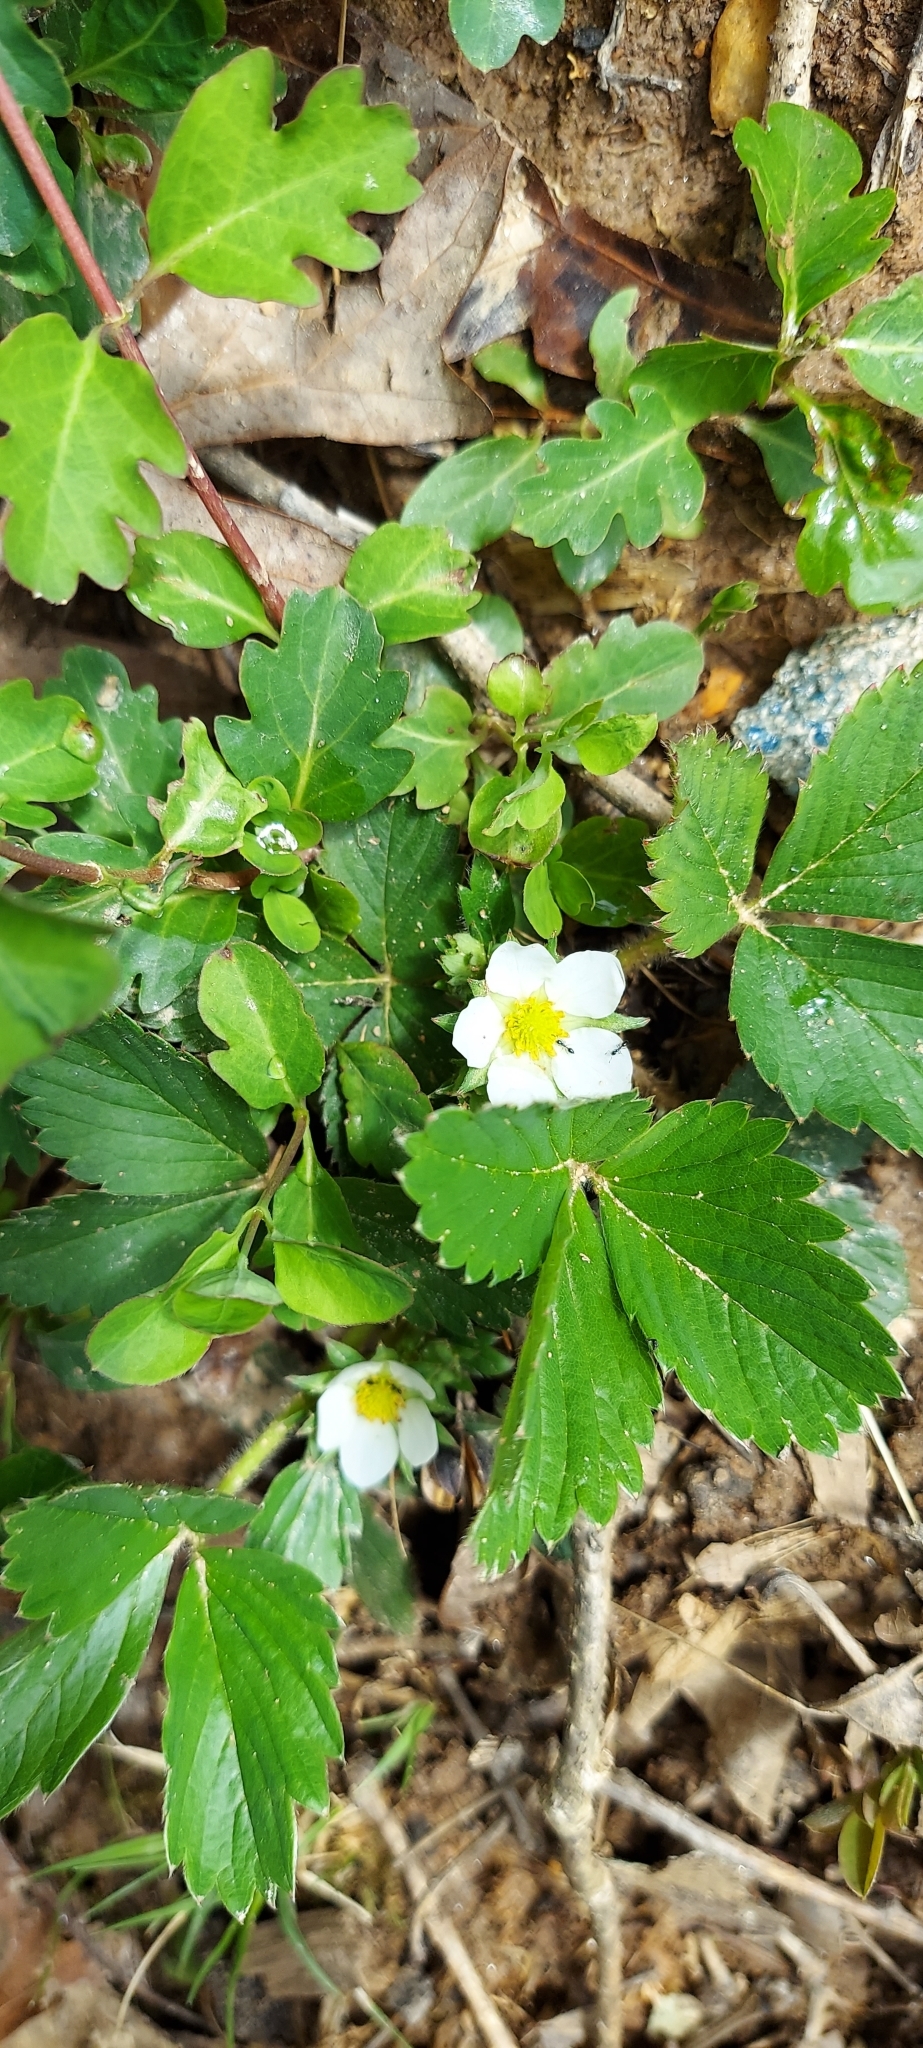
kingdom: Plantae
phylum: Tracheophyta
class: Magnoliopsida
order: Rosales
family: Rosaceae
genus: Fragaria
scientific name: Fragaria virginiana
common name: Thickleaved wild strawberry
